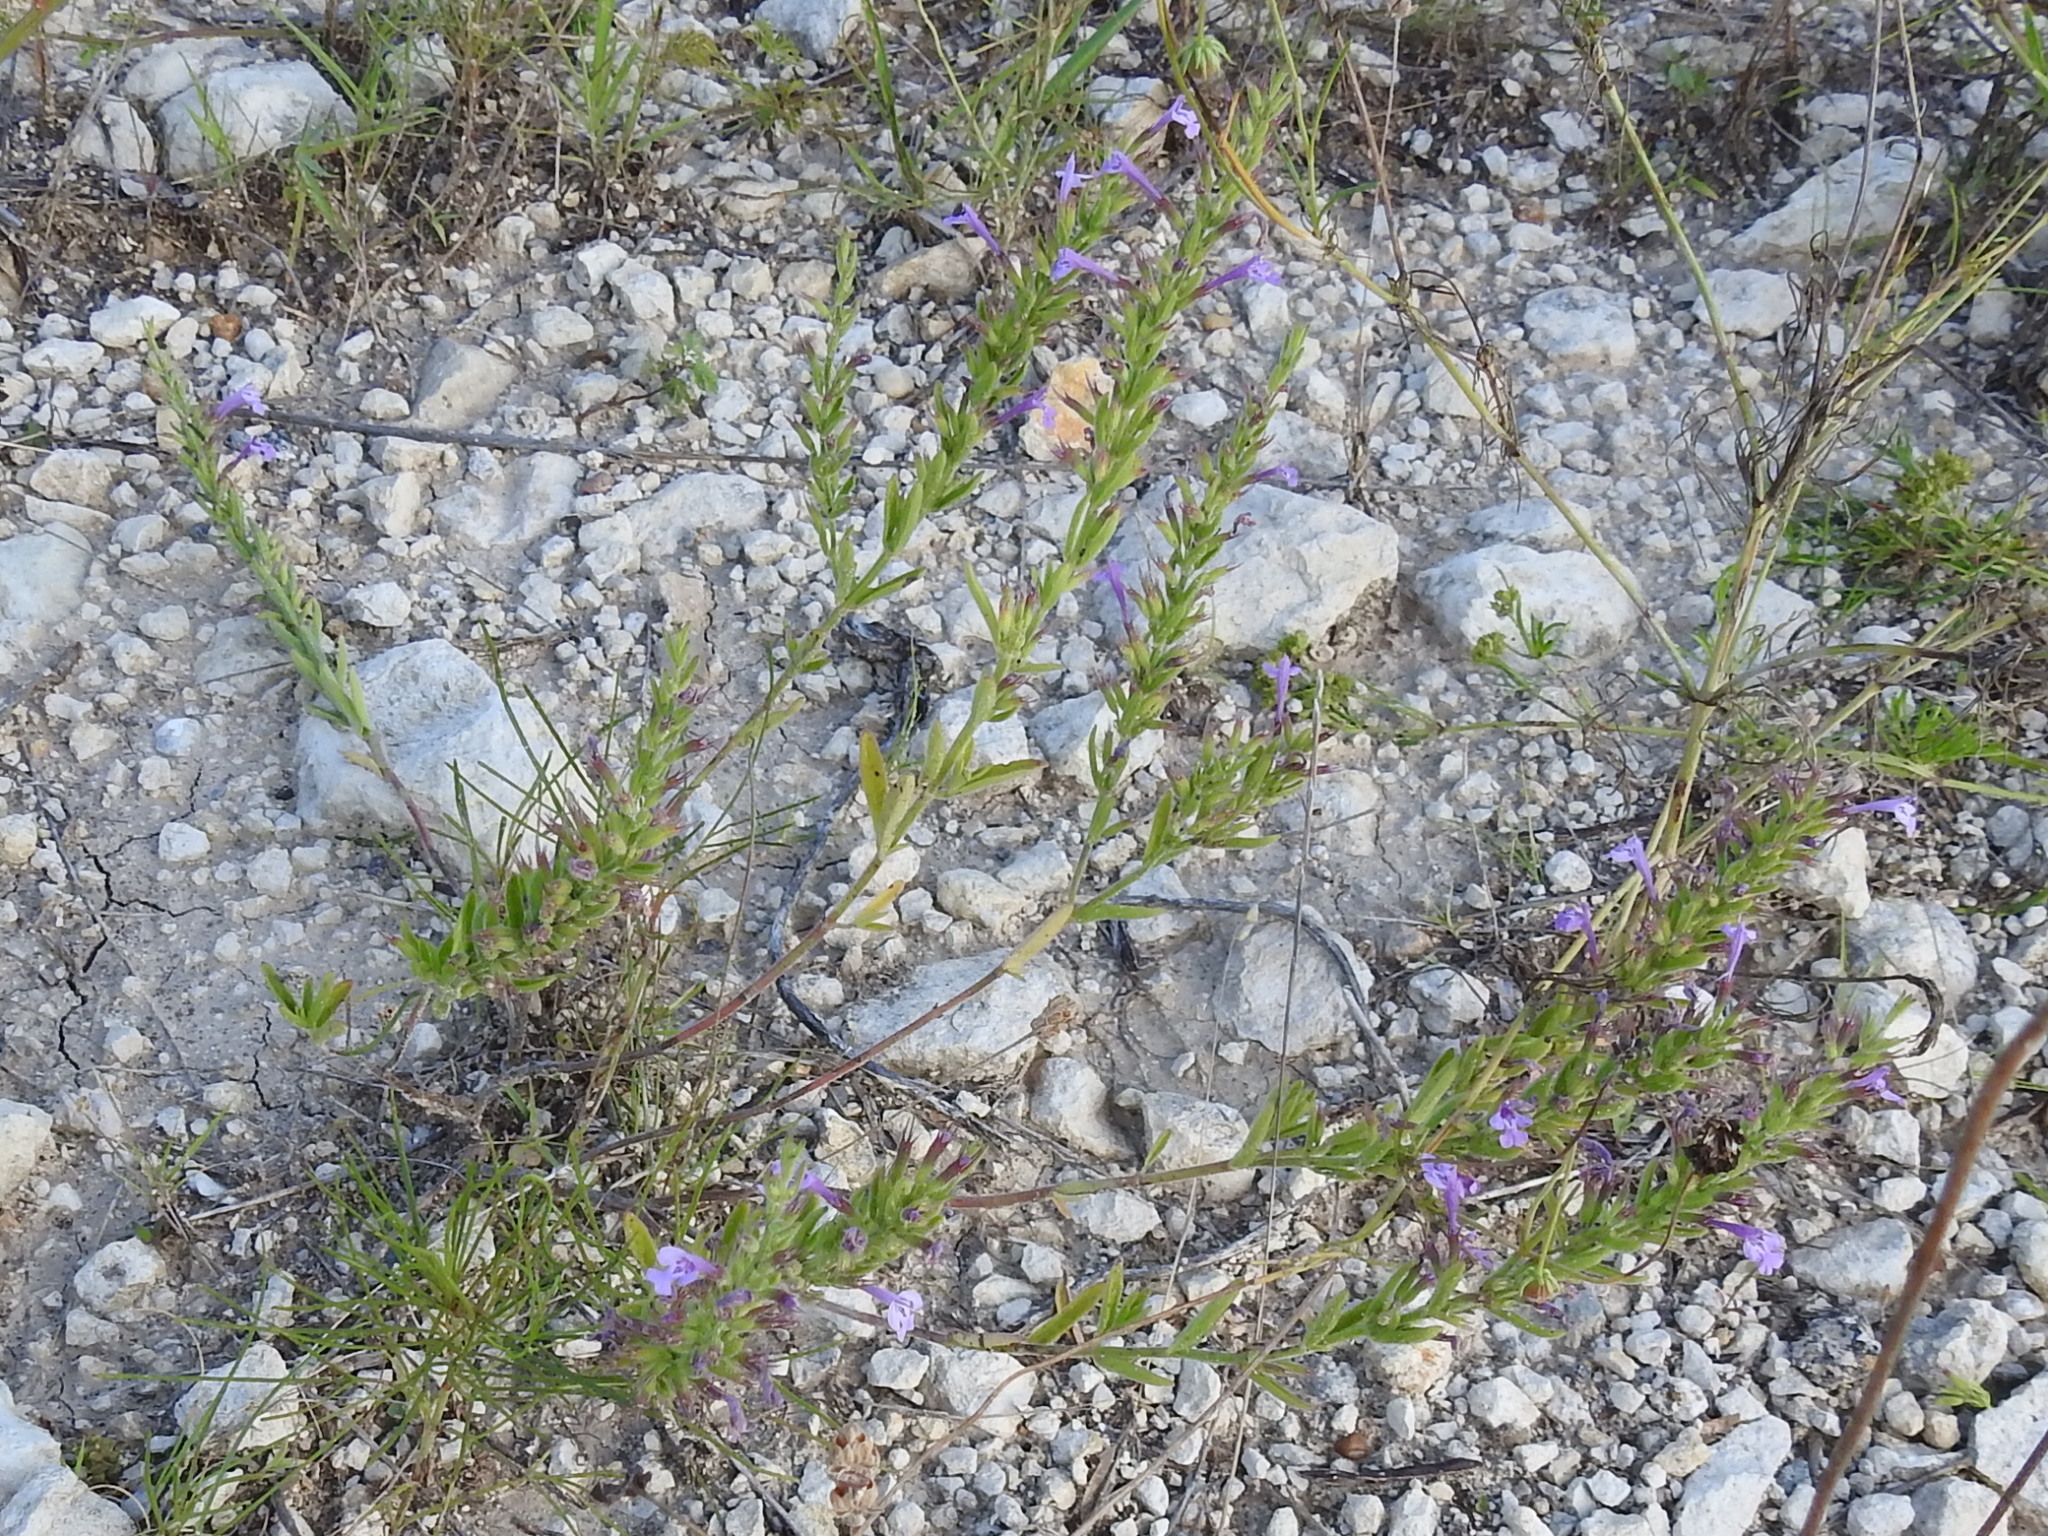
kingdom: Plantae
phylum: Tracheophyta
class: Magnoliopsida
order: Lamiales
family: Lamiaceae
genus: Hedeoma
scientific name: Hedeoma reverchonii
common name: Reverchon's false penny-royal
